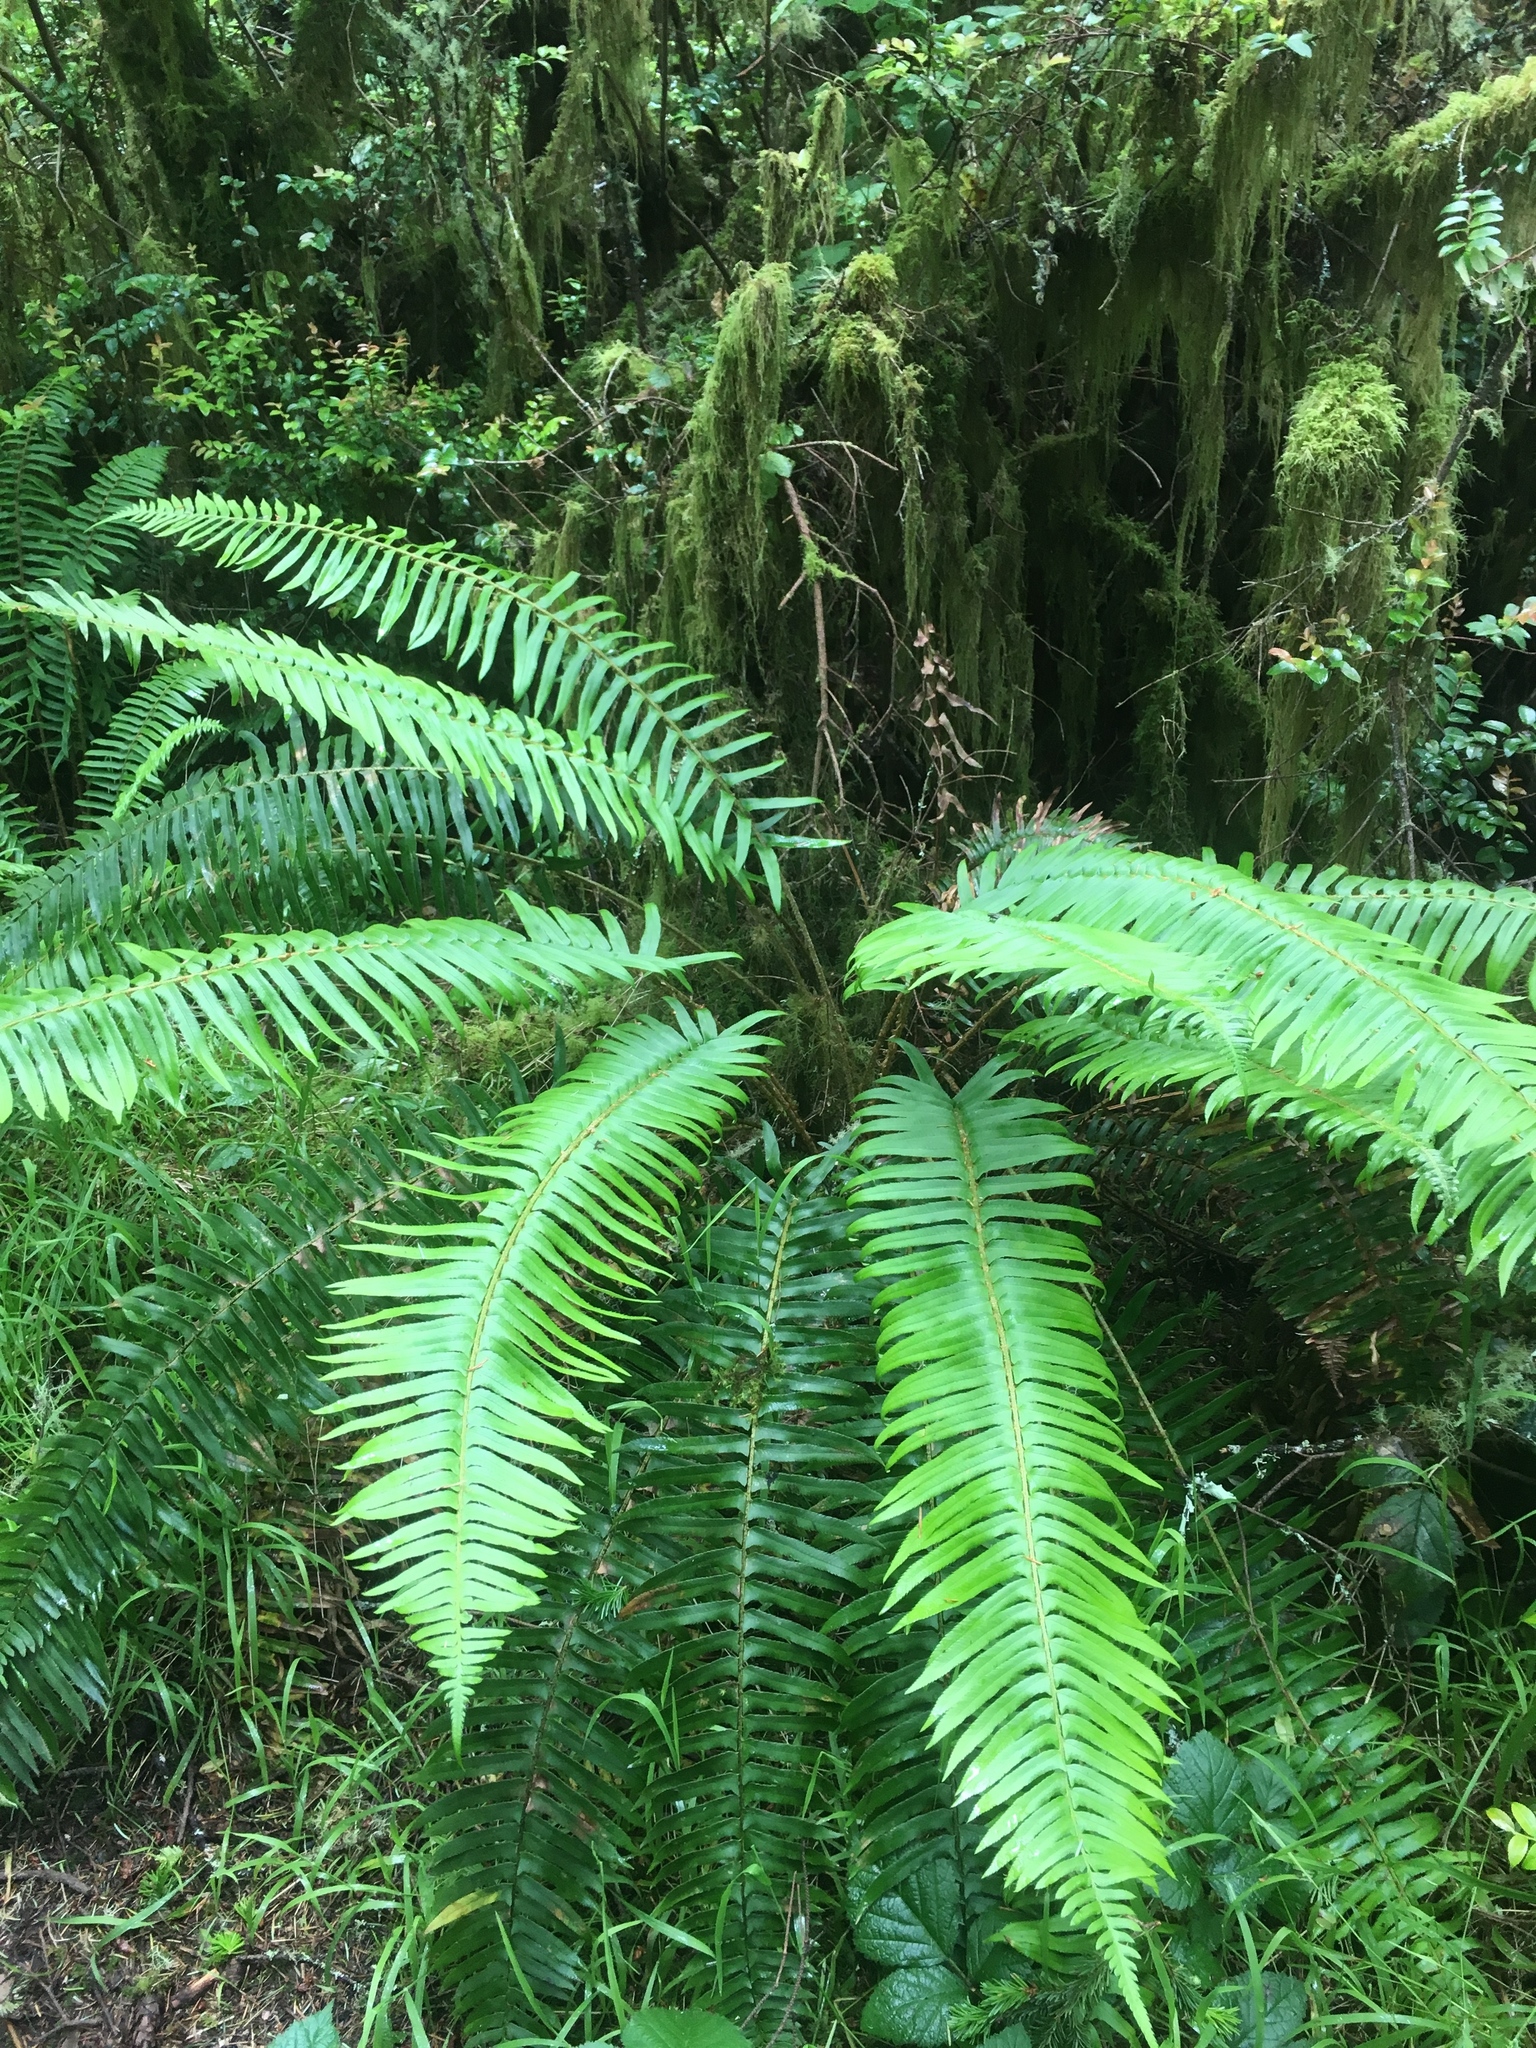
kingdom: Plantae
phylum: Tracheophyta
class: Polypodiopsida
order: Polypodiales
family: Dryopteridaceae
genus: Polystichum
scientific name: Polystichum munitum
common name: Western sword-fern
